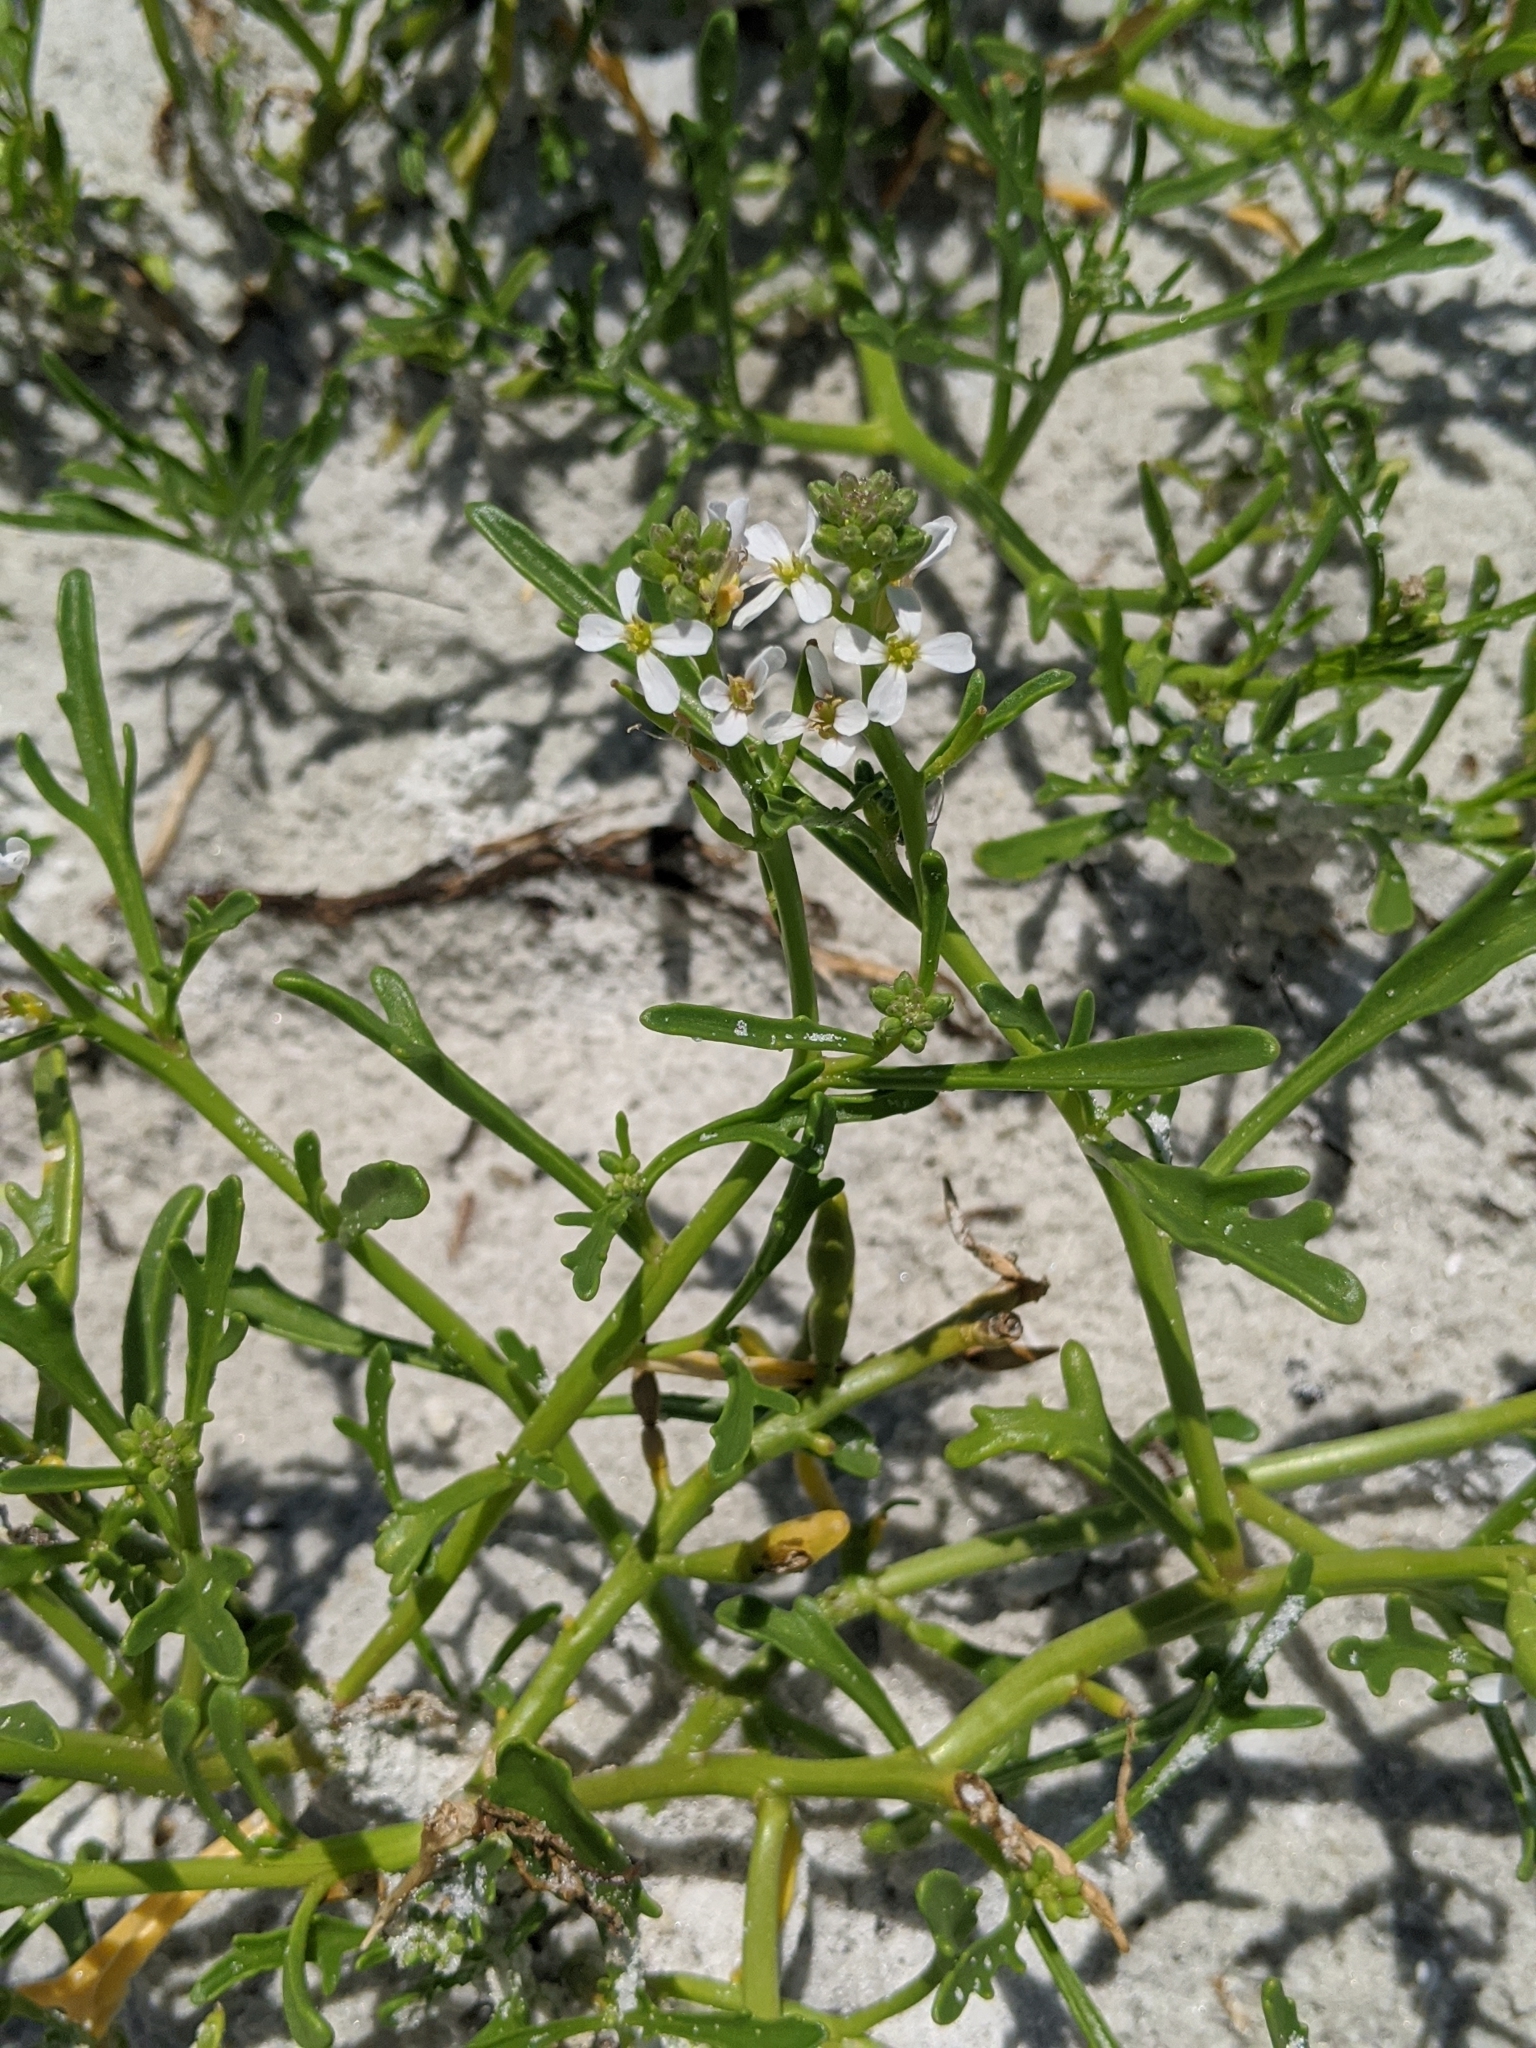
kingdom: Plantae
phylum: Tracheophyta
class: Magnoliopsida
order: Brassicales
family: Brassicaceae
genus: Cakile
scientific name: Cakile lanceolata
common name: Sea rocket
